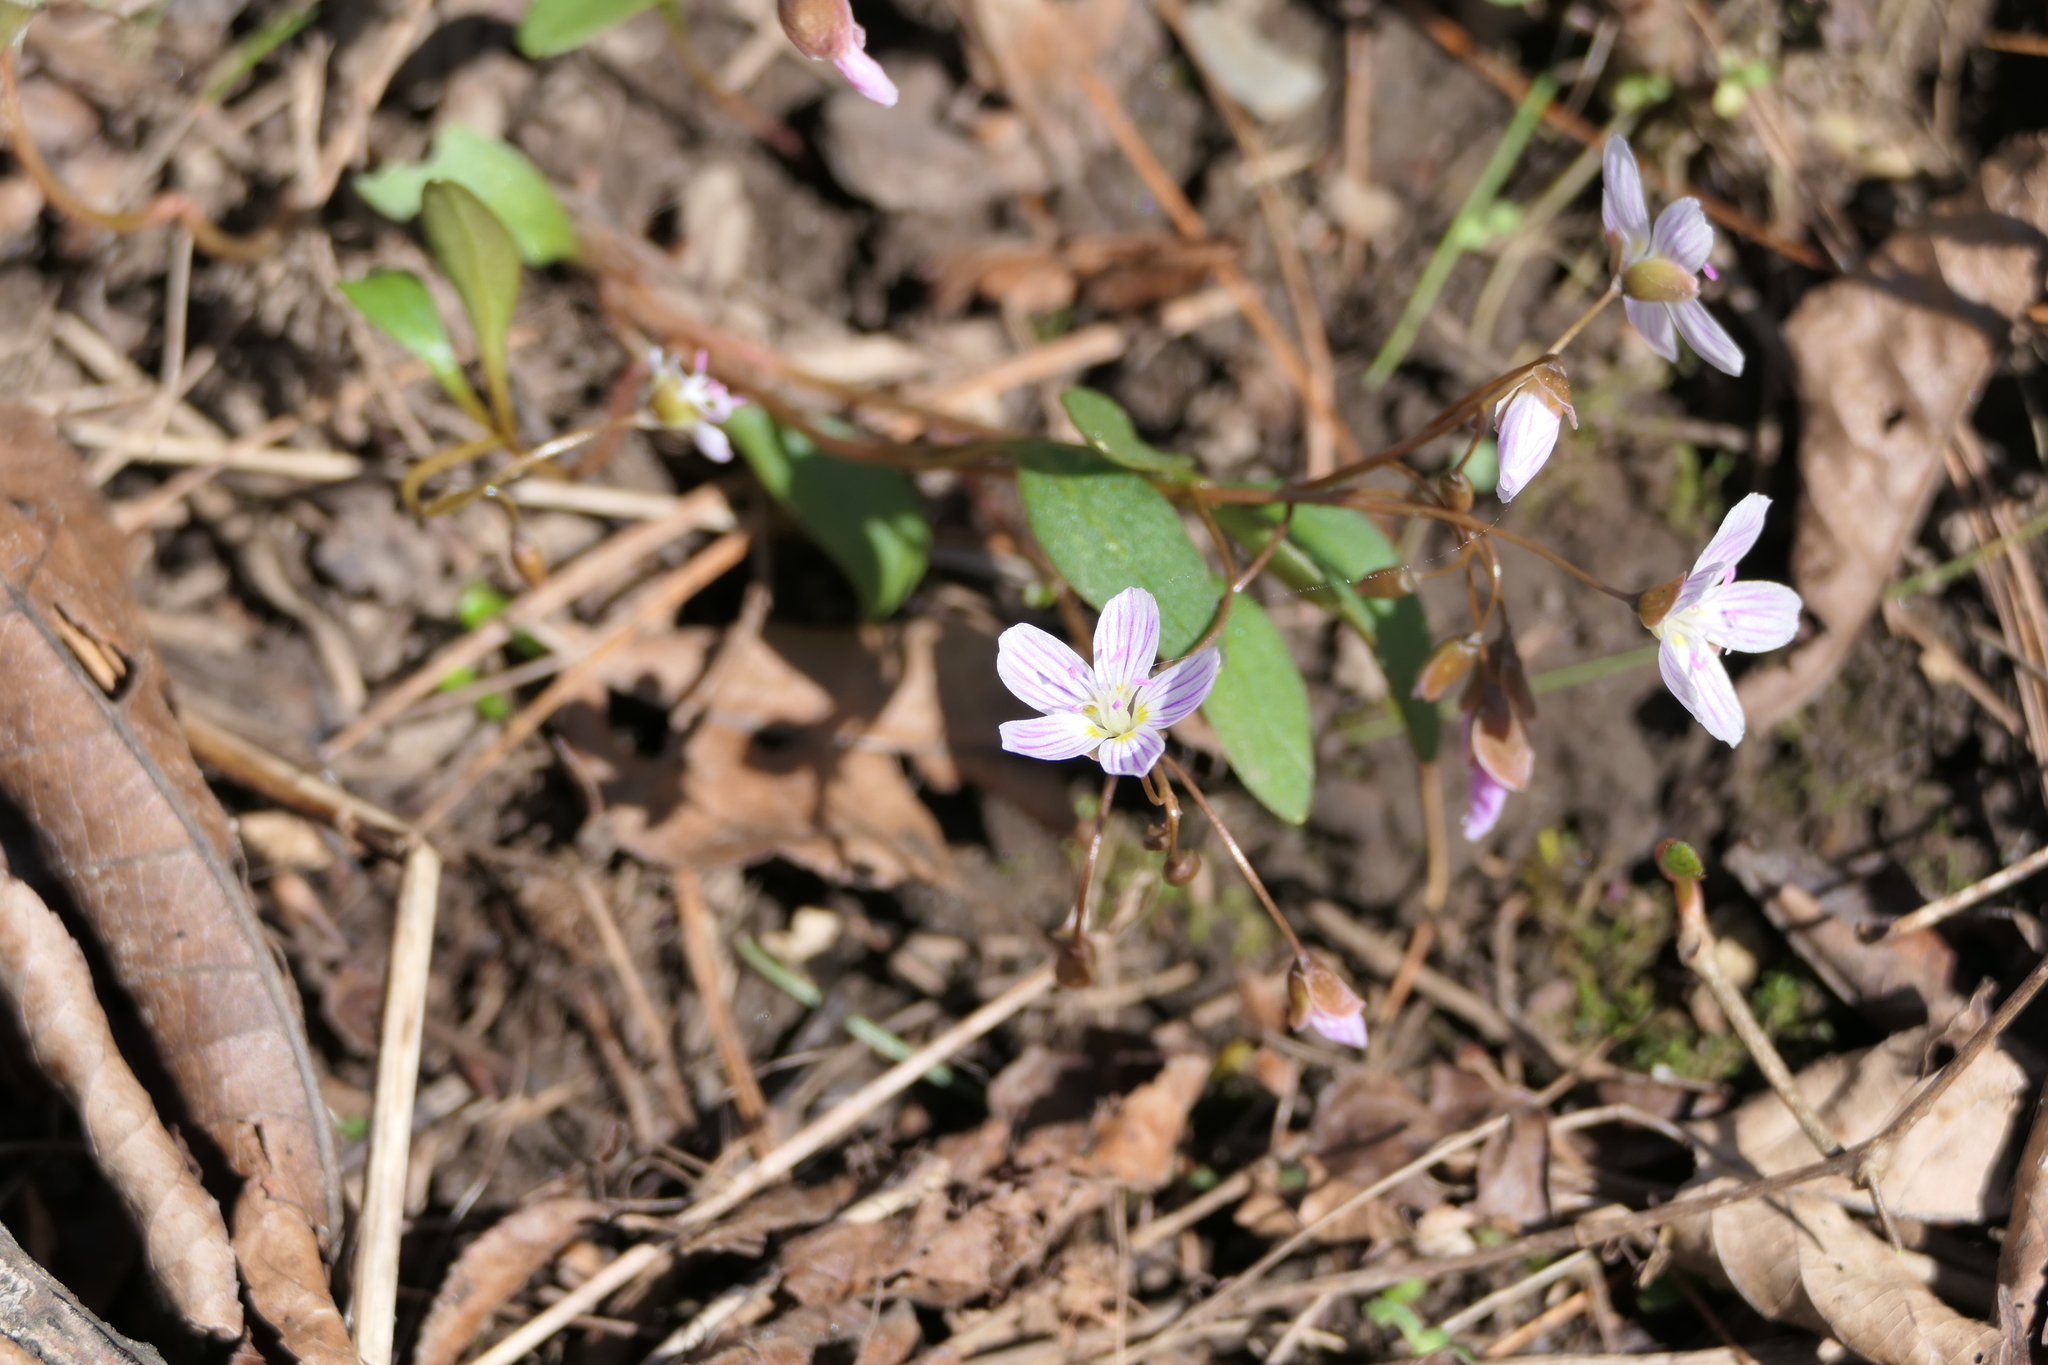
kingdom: Plantae
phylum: Tracheophyta
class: Magnoliopsida
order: Caryophyllales
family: Montiaceae
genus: Claytonia
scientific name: Claytonia caroliniana
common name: Carolina spring beauty
